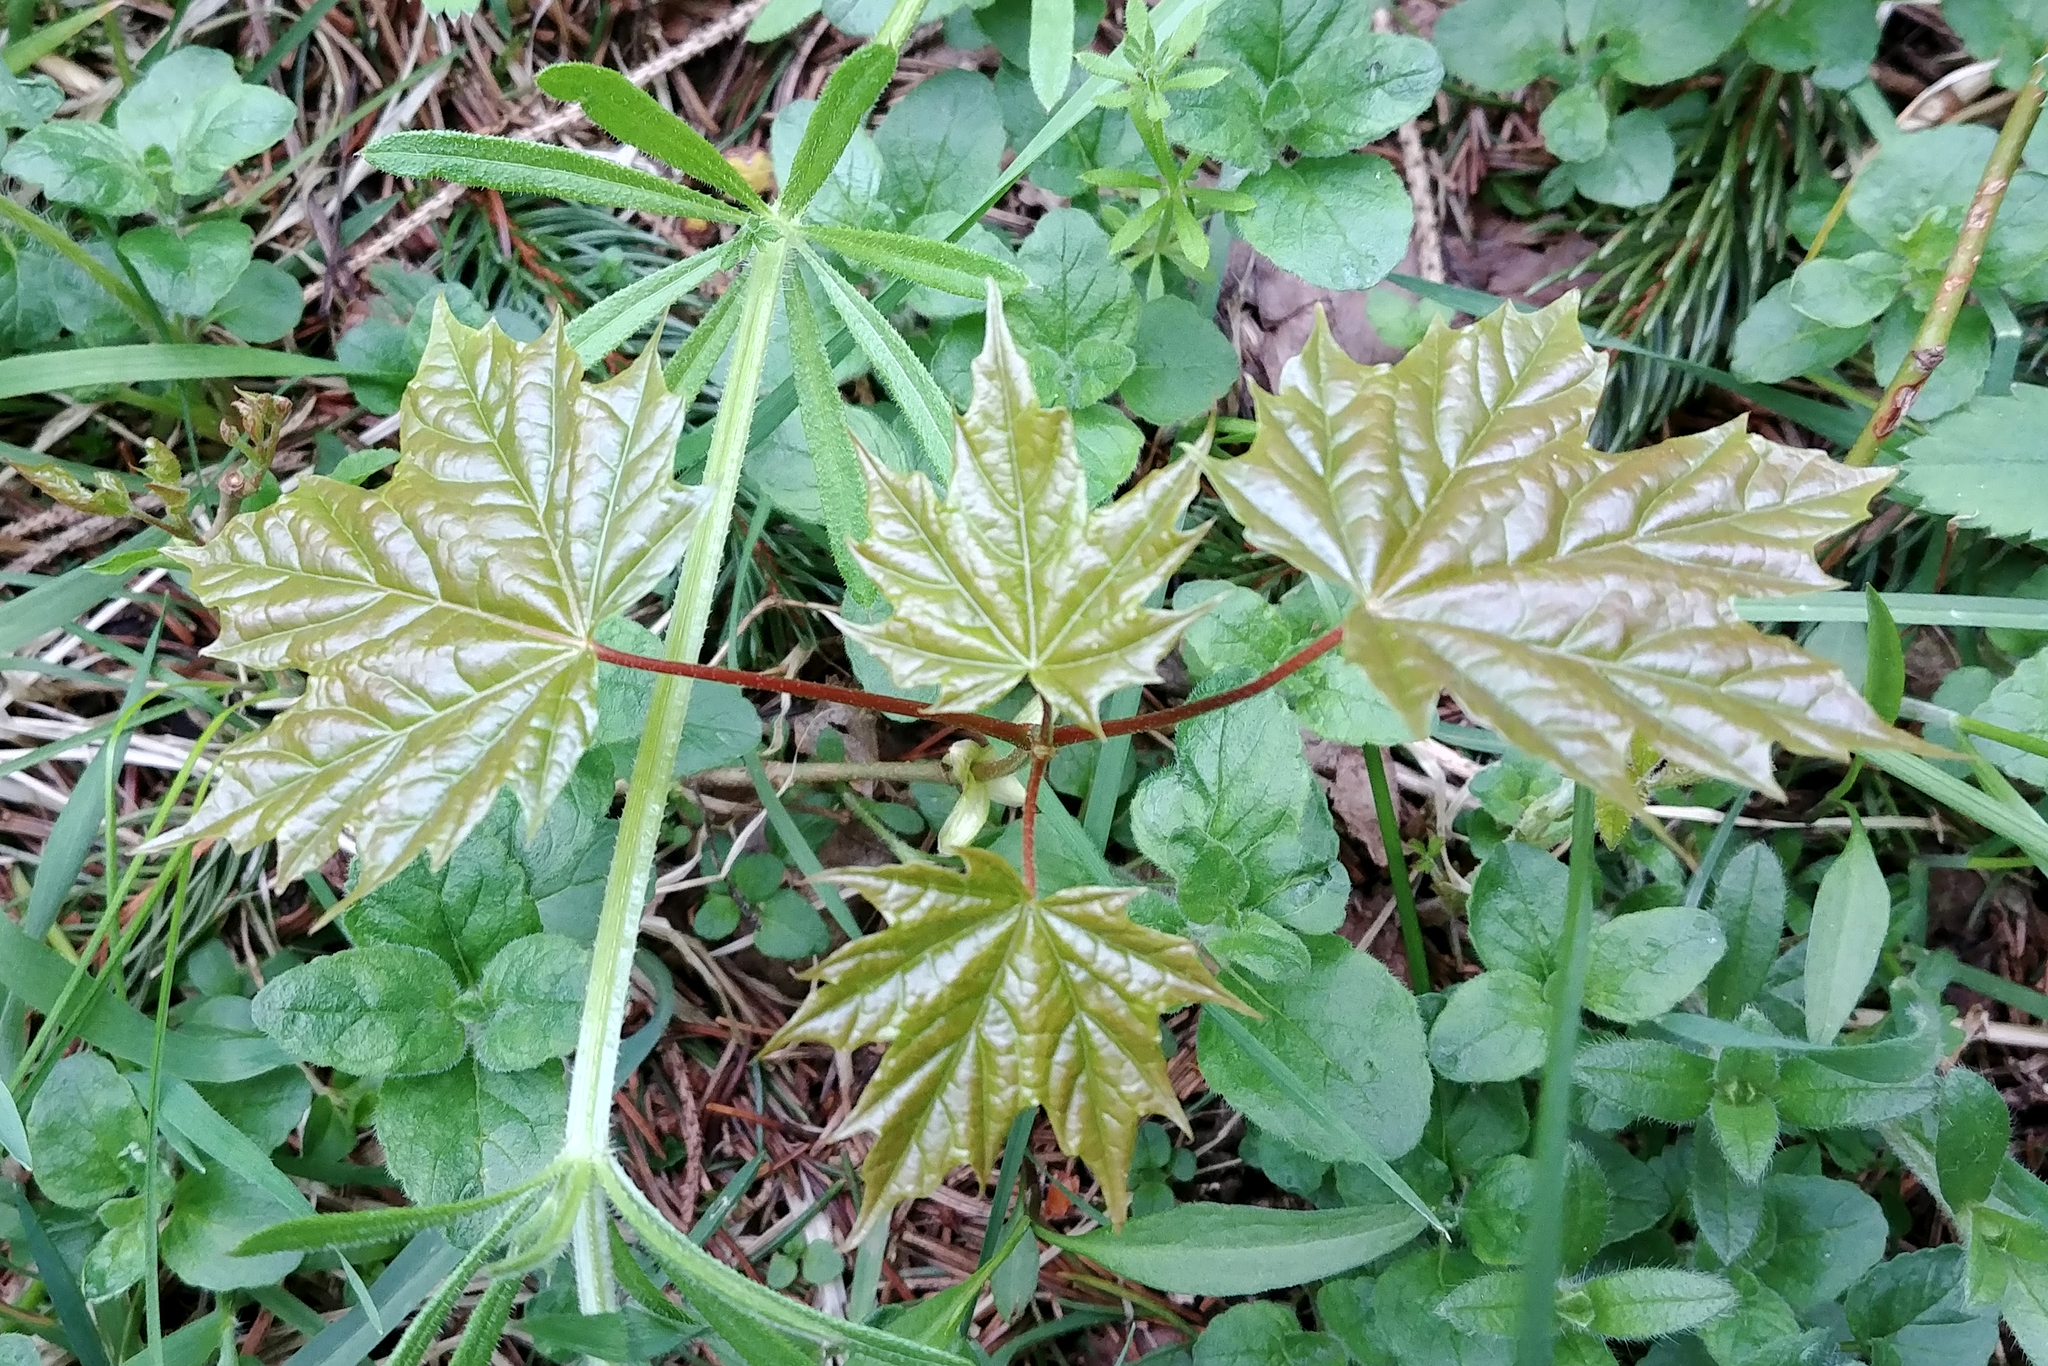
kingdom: Plantae
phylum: Tracheophyta
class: Magnoliopsida
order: Sapindales
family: Sapindaceae
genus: Acer
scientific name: Acer platanoides
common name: Norway maple
